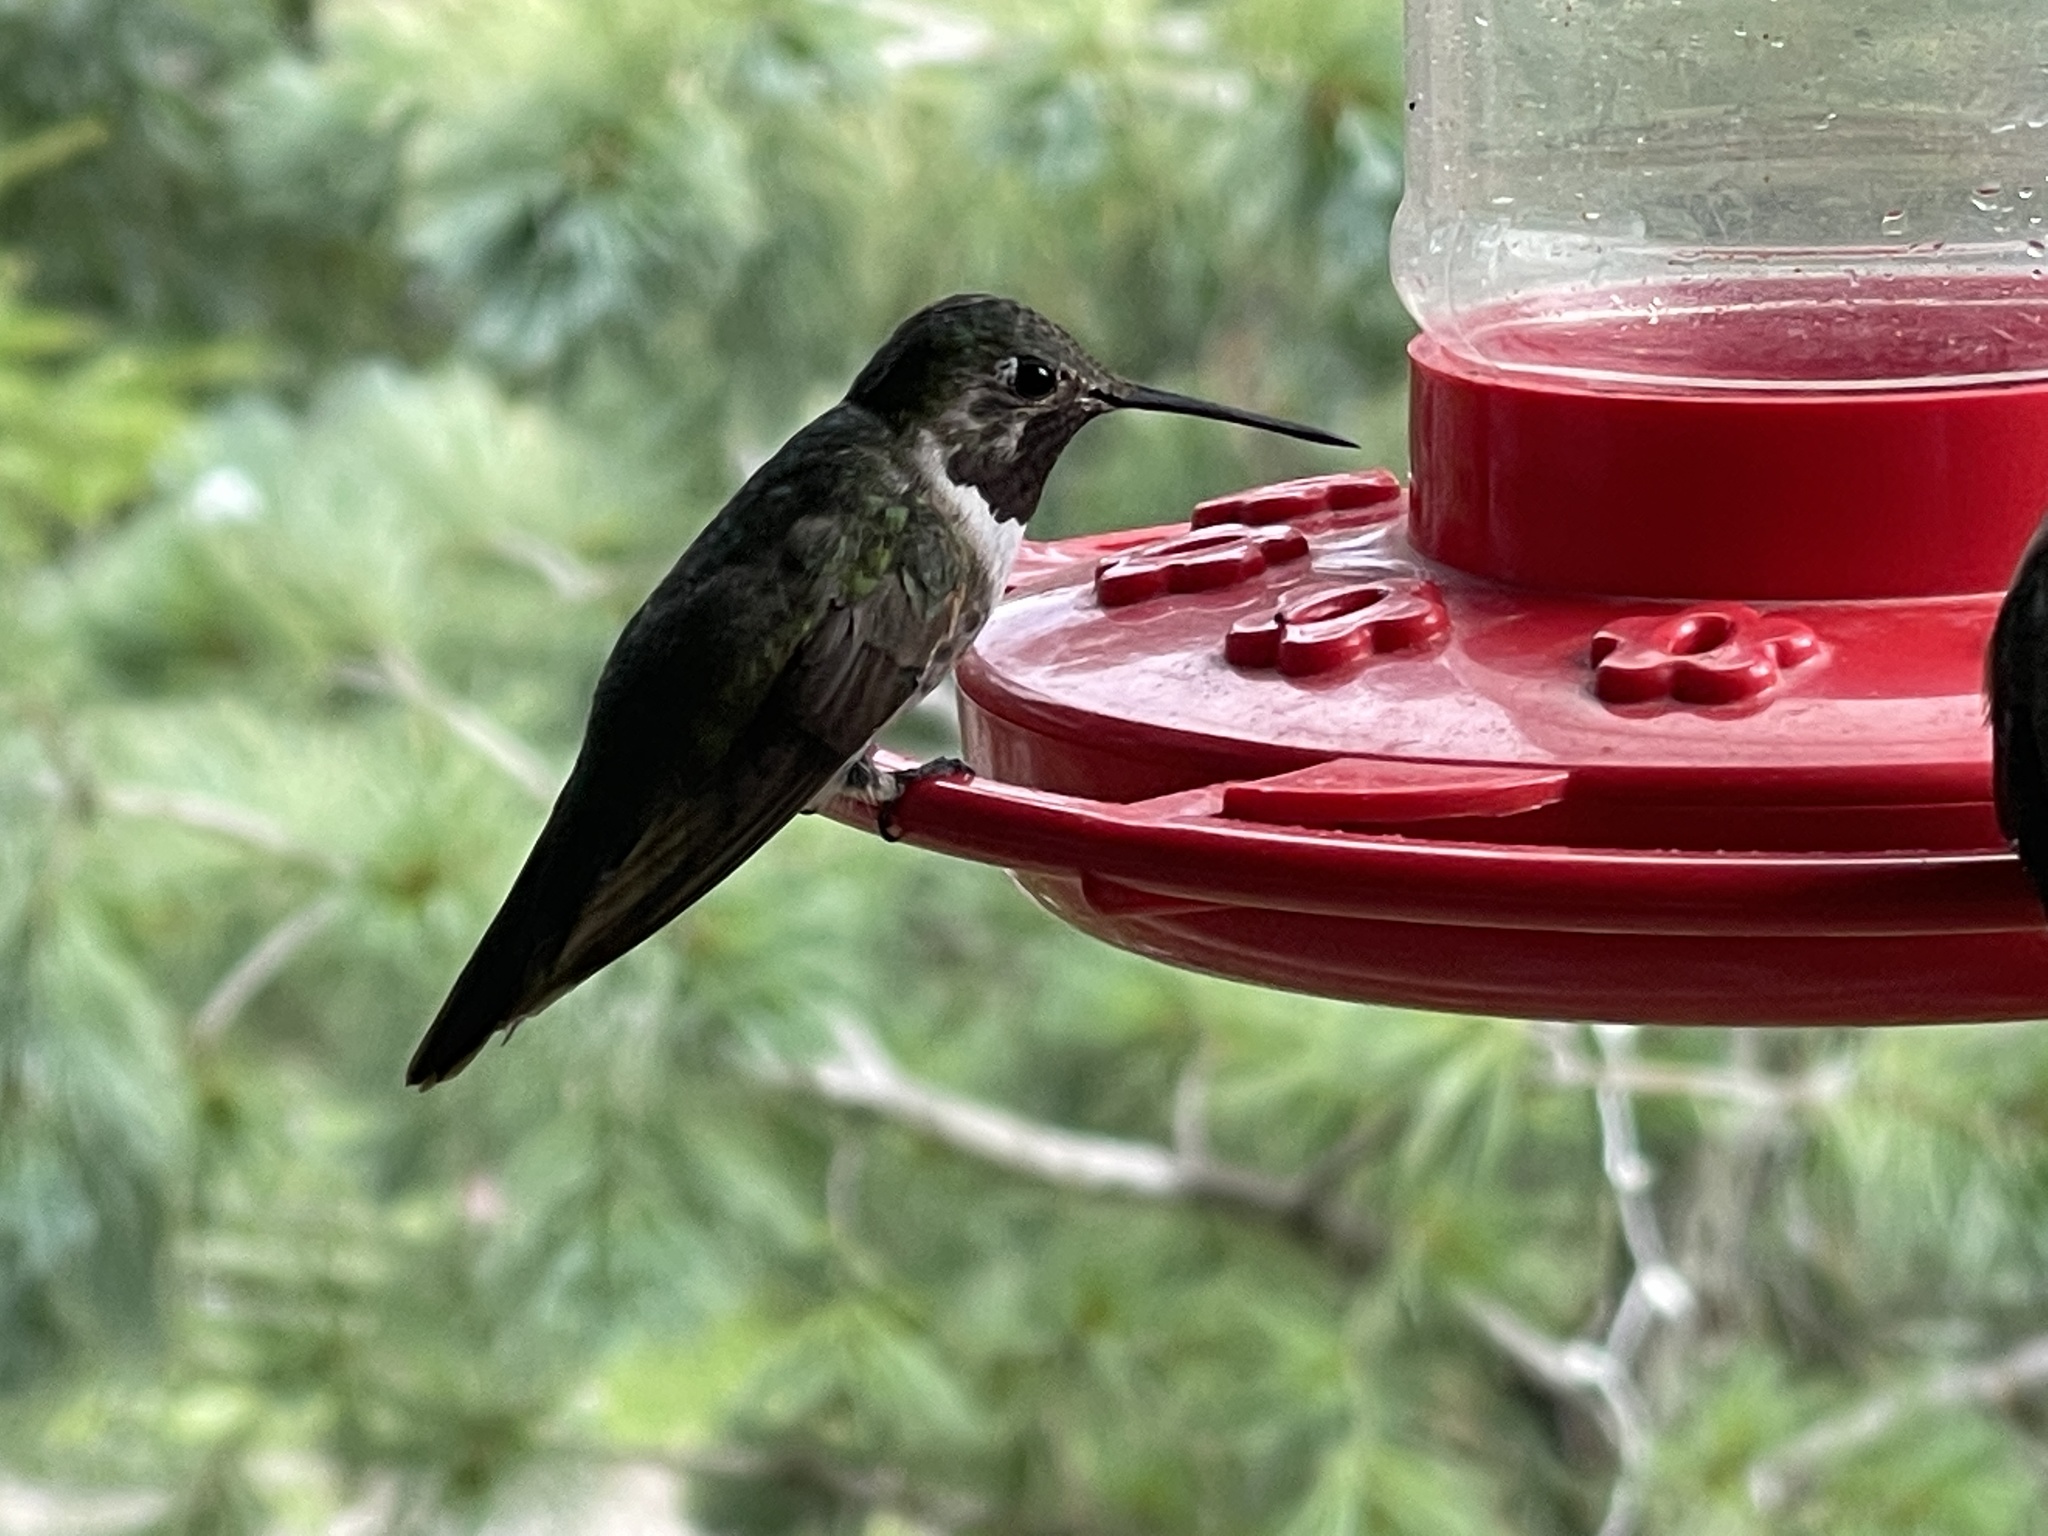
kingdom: Animalia
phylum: Chordata
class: Aves
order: Apodiformes
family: Trochilidae
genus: Selasphorus
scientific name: Selasphorus platycercus
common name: Broad-tailed hummingbird
